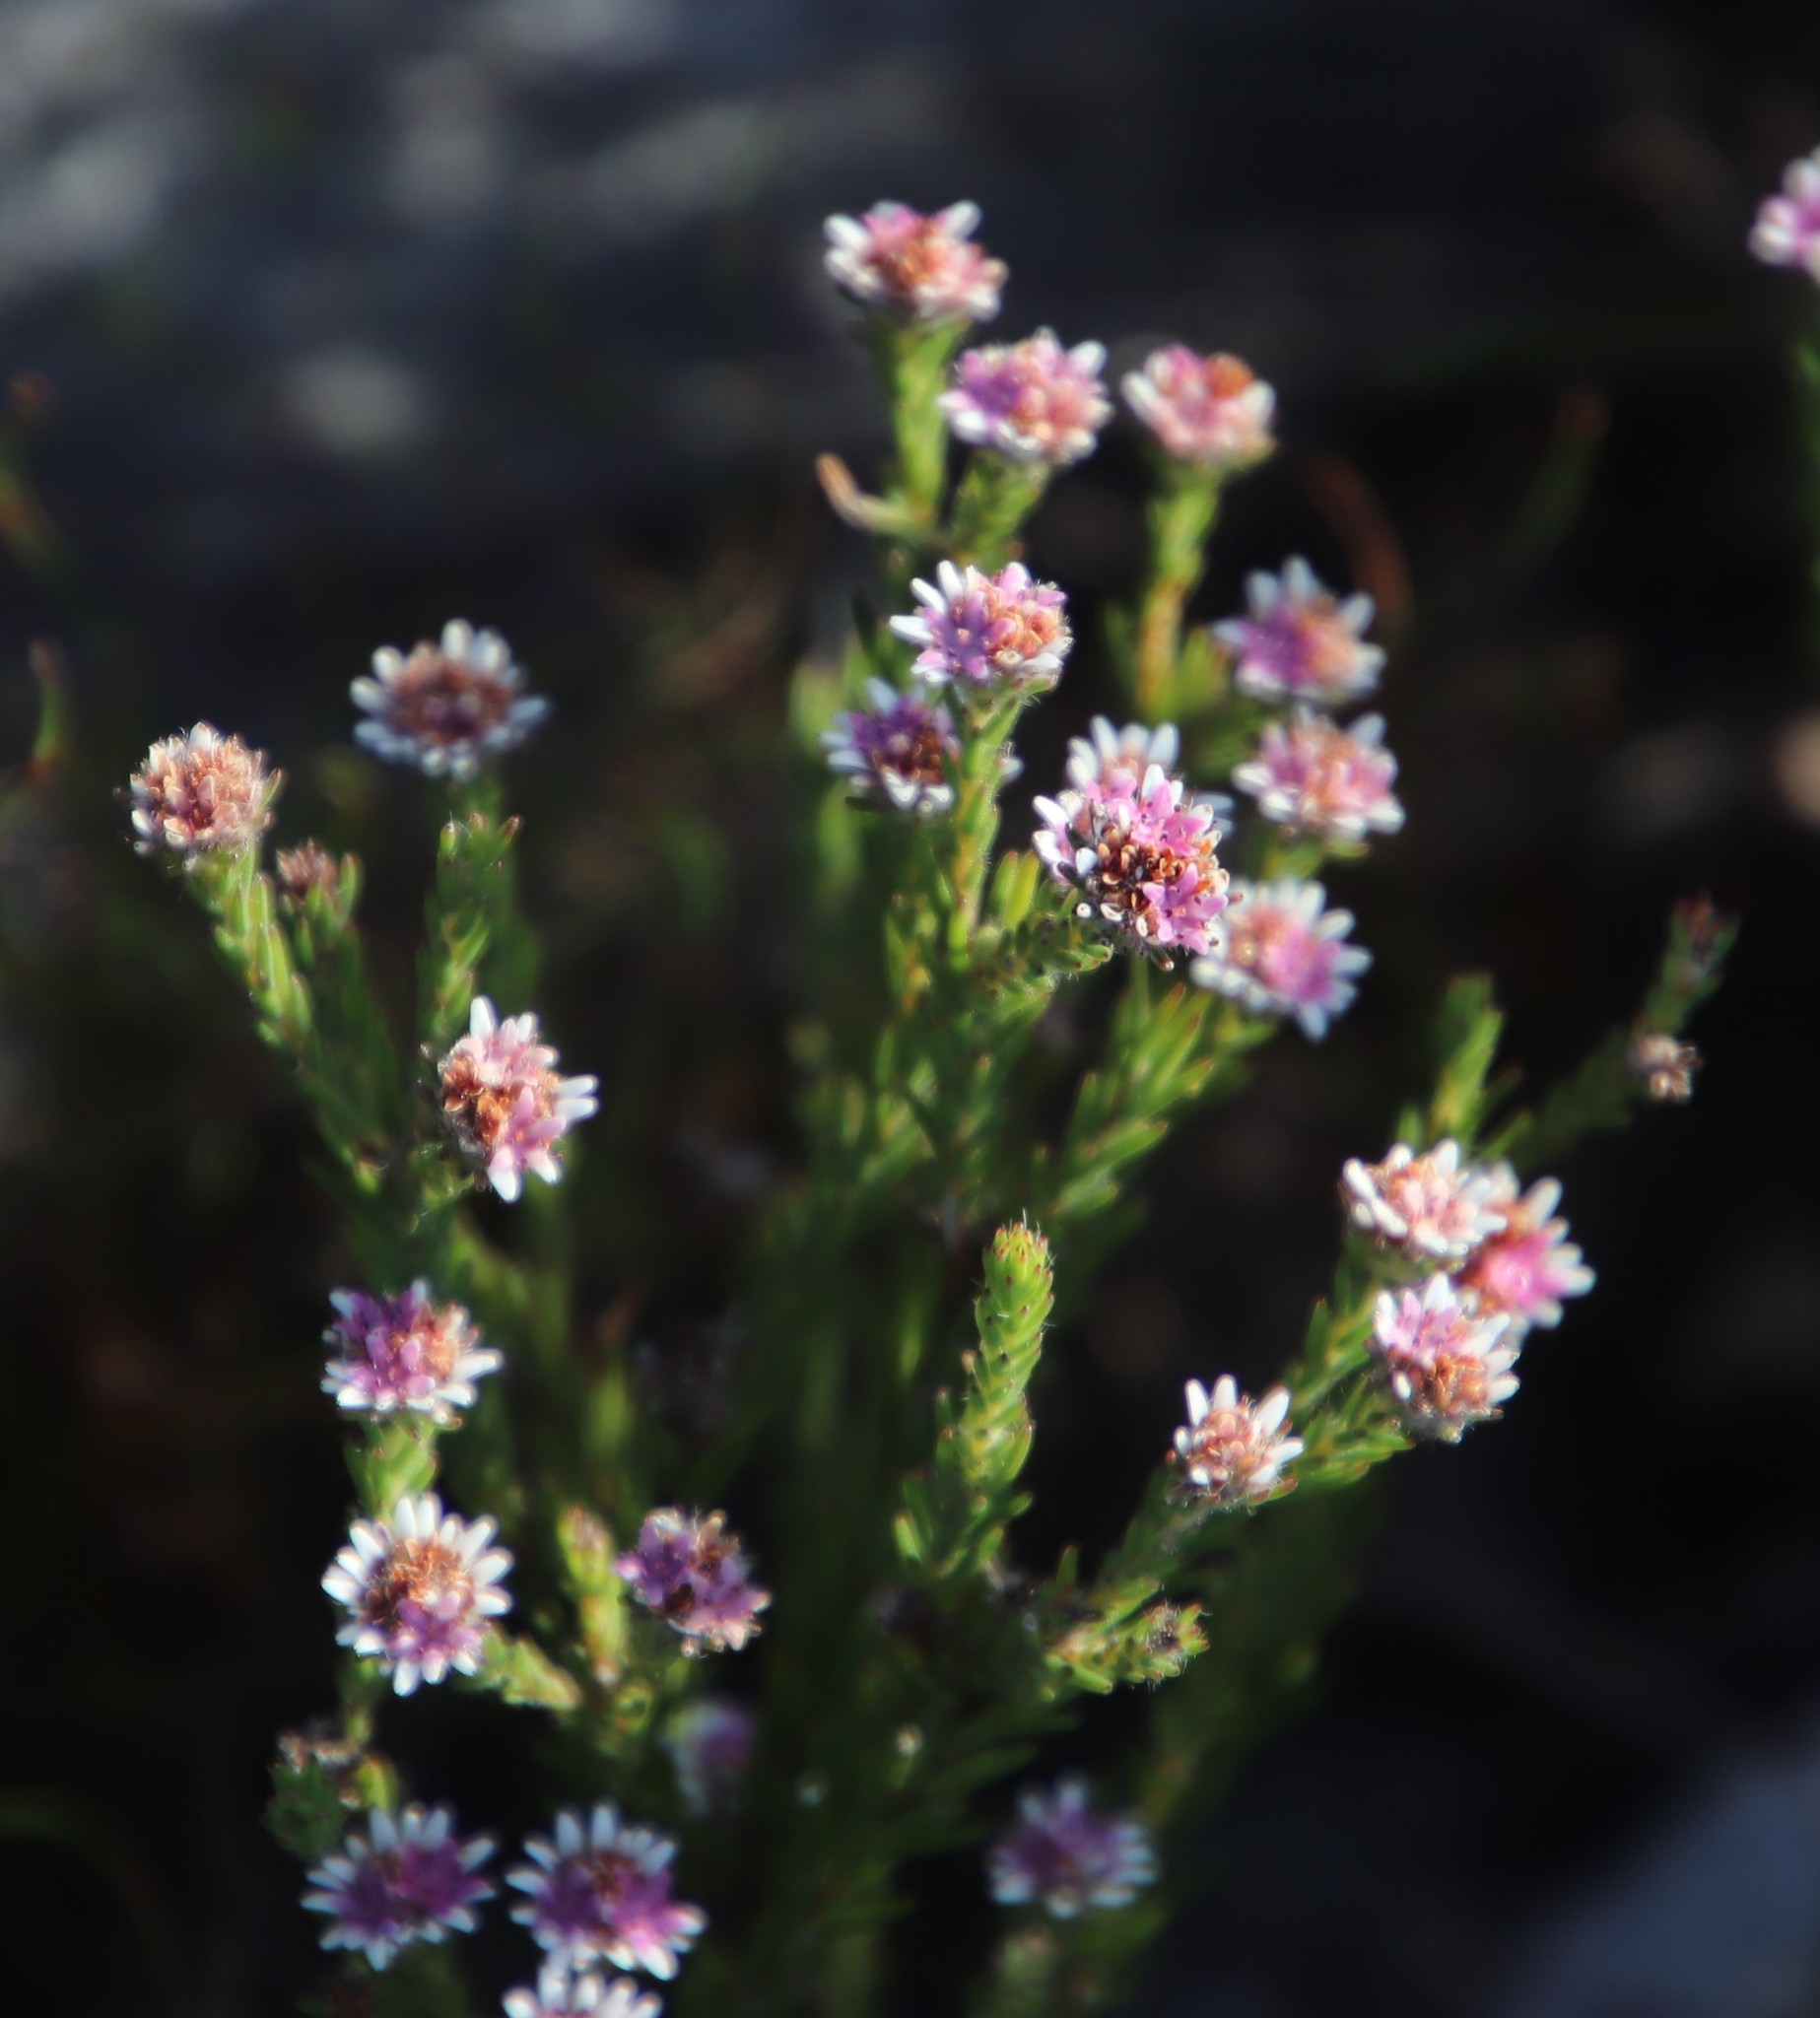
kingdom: Plantae
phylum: Tracheophyta
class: Magnoliopsida
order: Bruniales
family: Bruniaceae
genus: Staavia
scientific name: Staavia radiata
